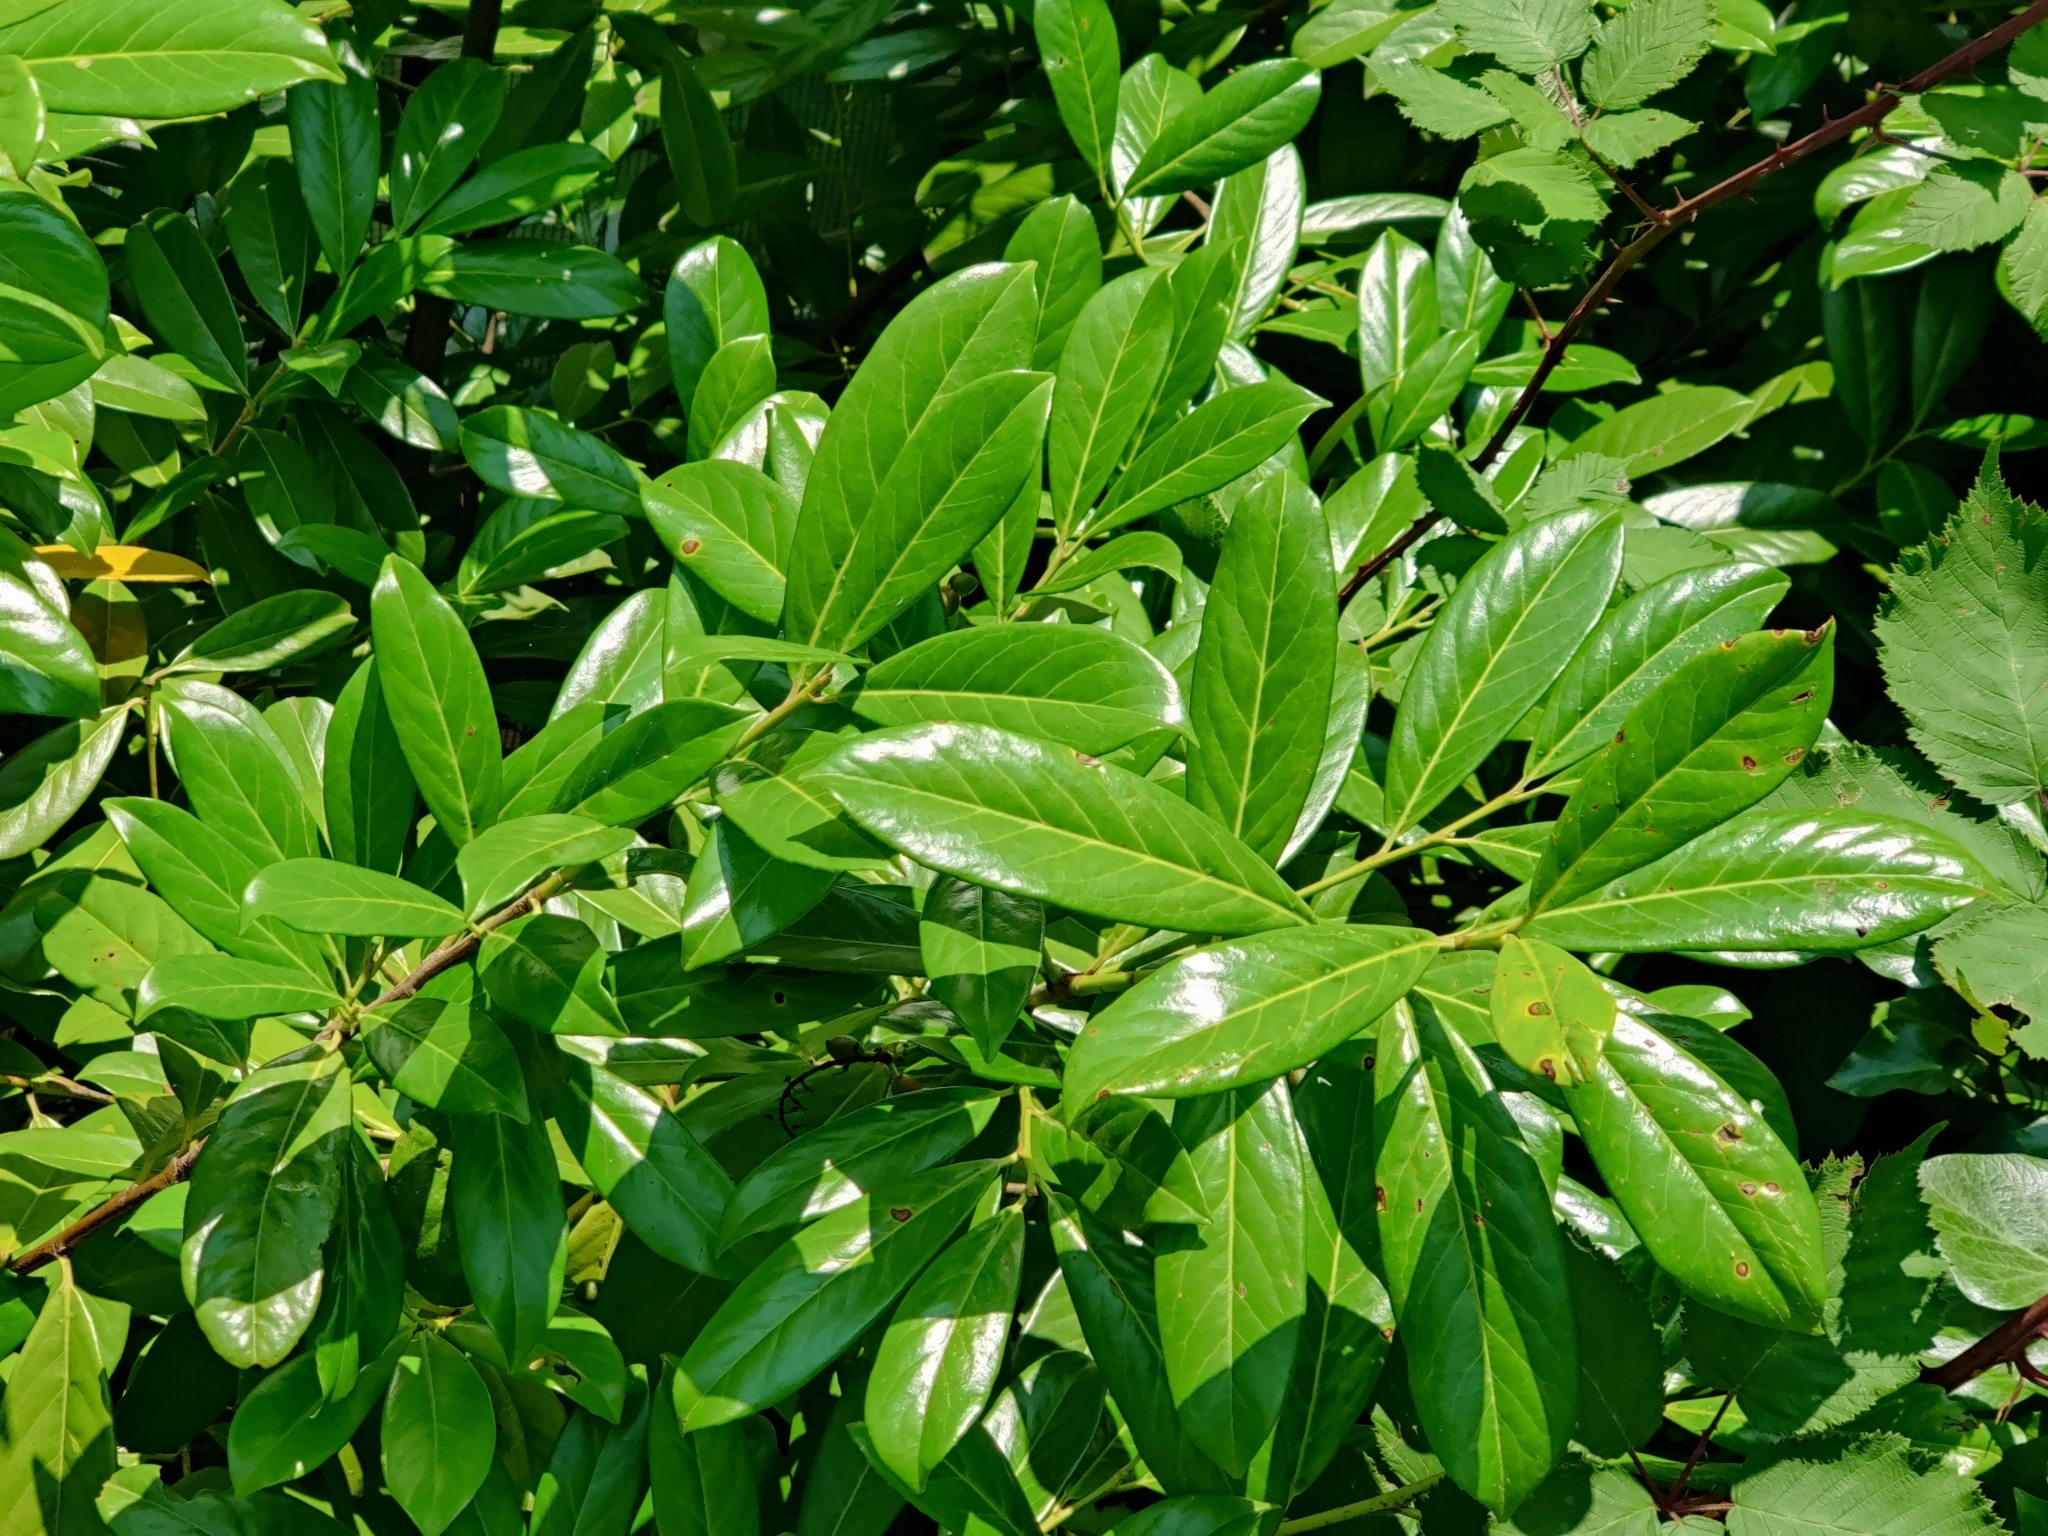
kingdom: Plantae
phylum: Tracheophyta
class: Magnoliopsida
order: Rosales
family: Rosaceae
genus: Prunus
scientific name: Prunus laurocerasus
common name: Cherry laurel
